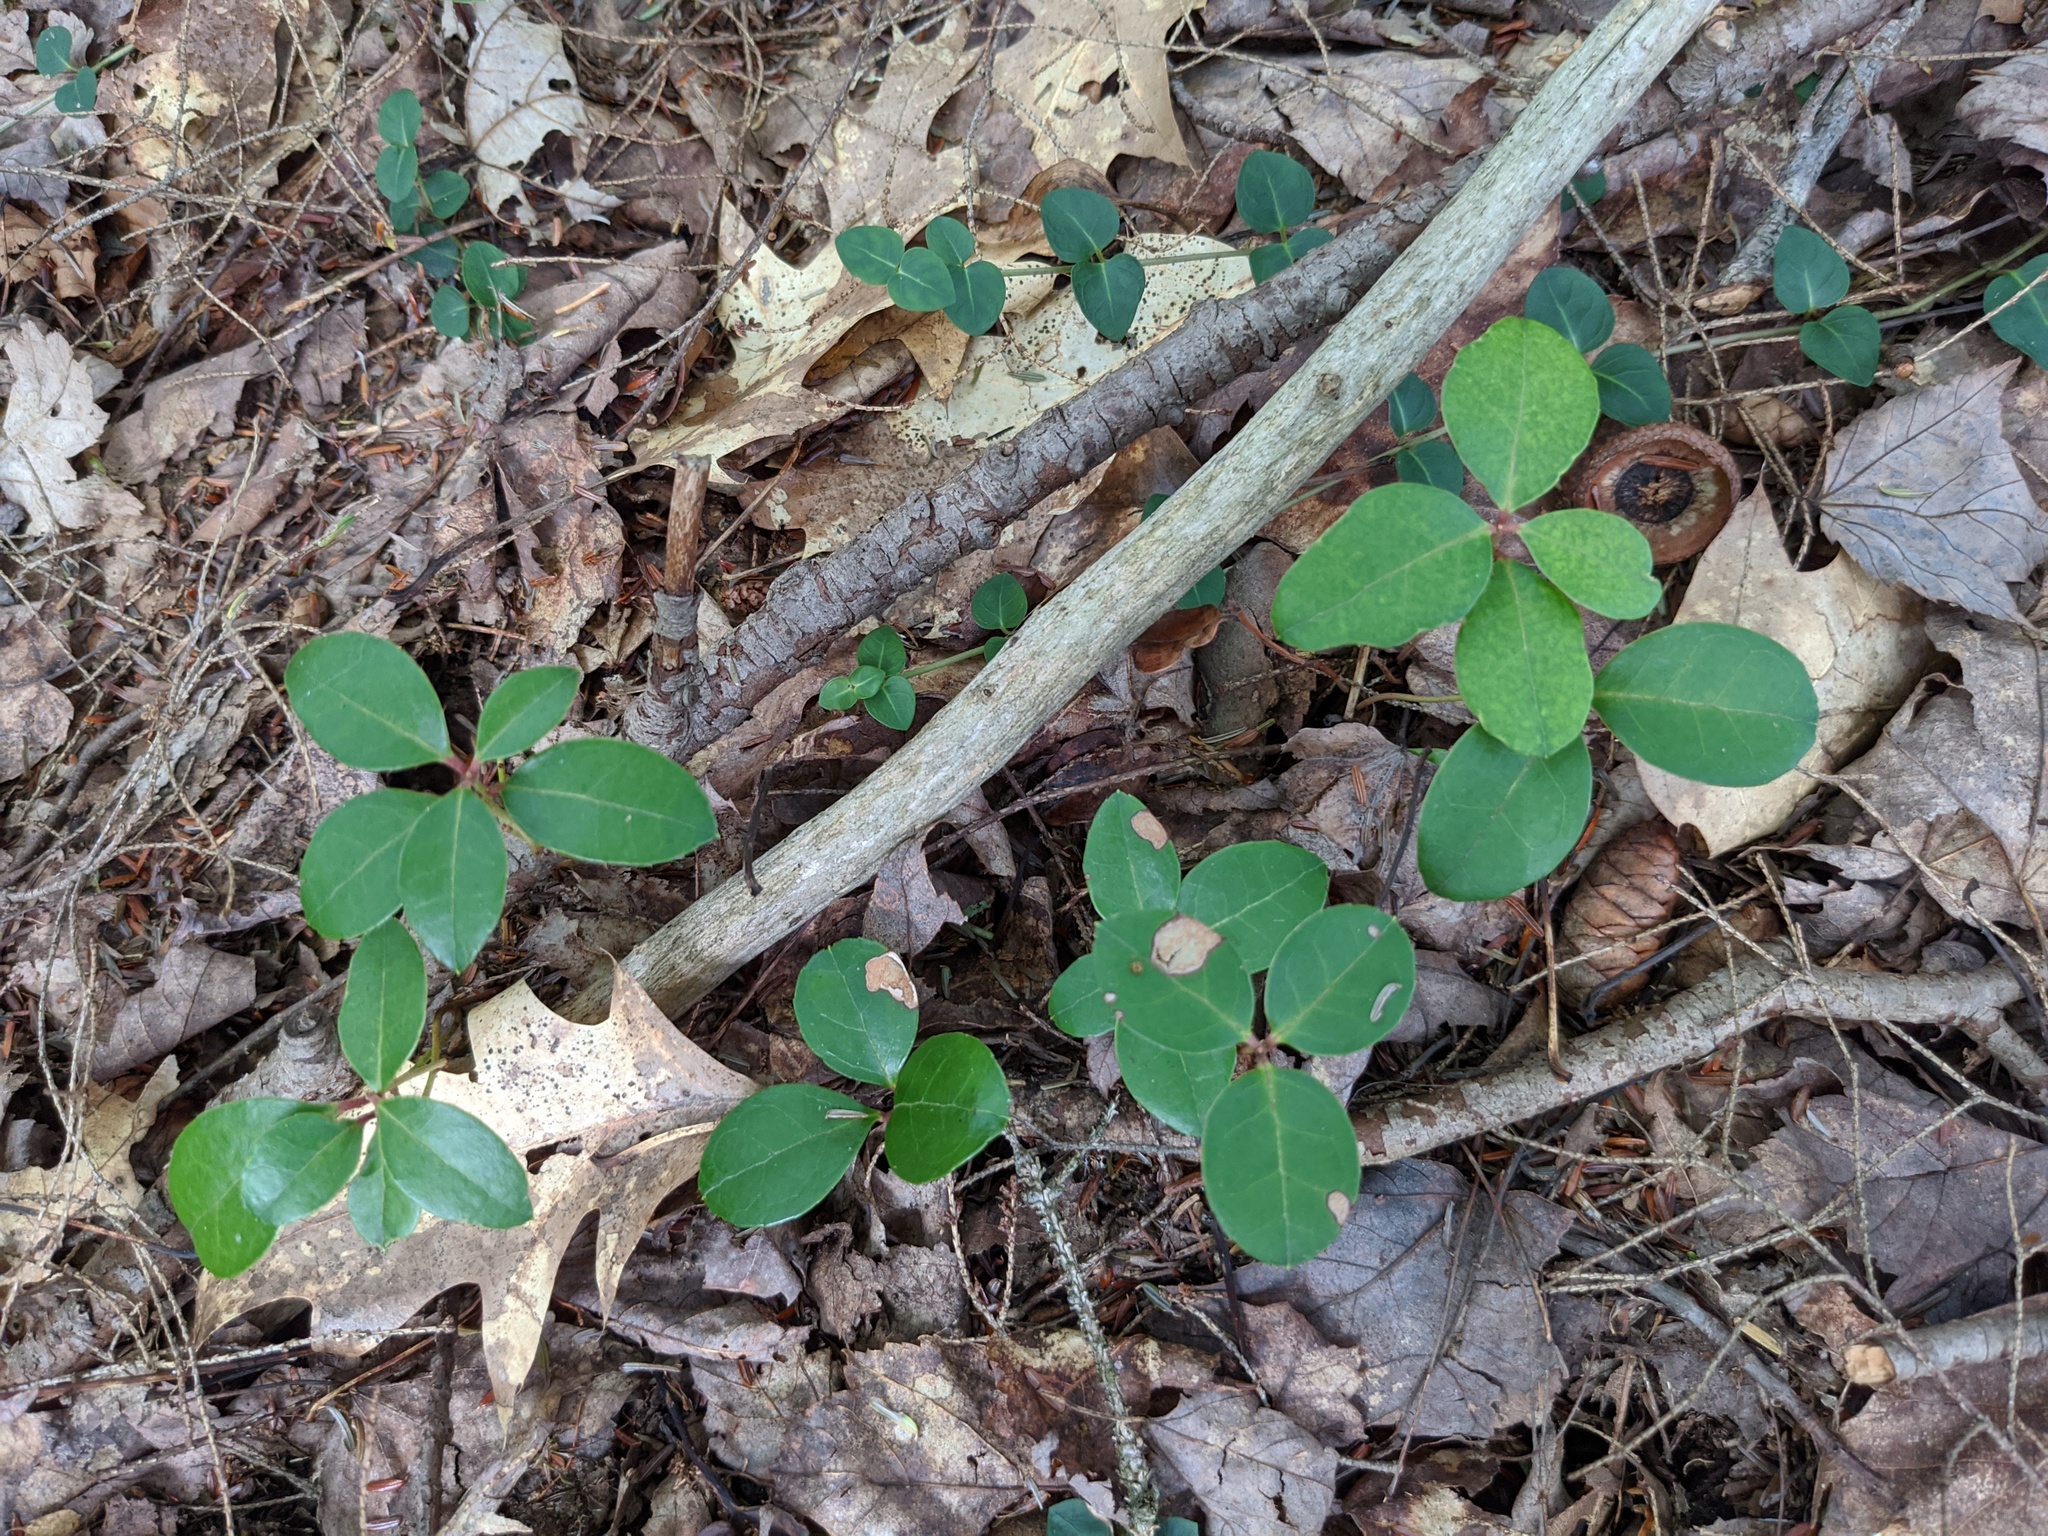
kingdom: Plantae
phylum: Tracheophyta
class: Magnoliopsida
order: Ericales
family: Ericaceae
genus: Gaultheria
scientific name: Gaultheria procumbens
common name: Checkerberry
